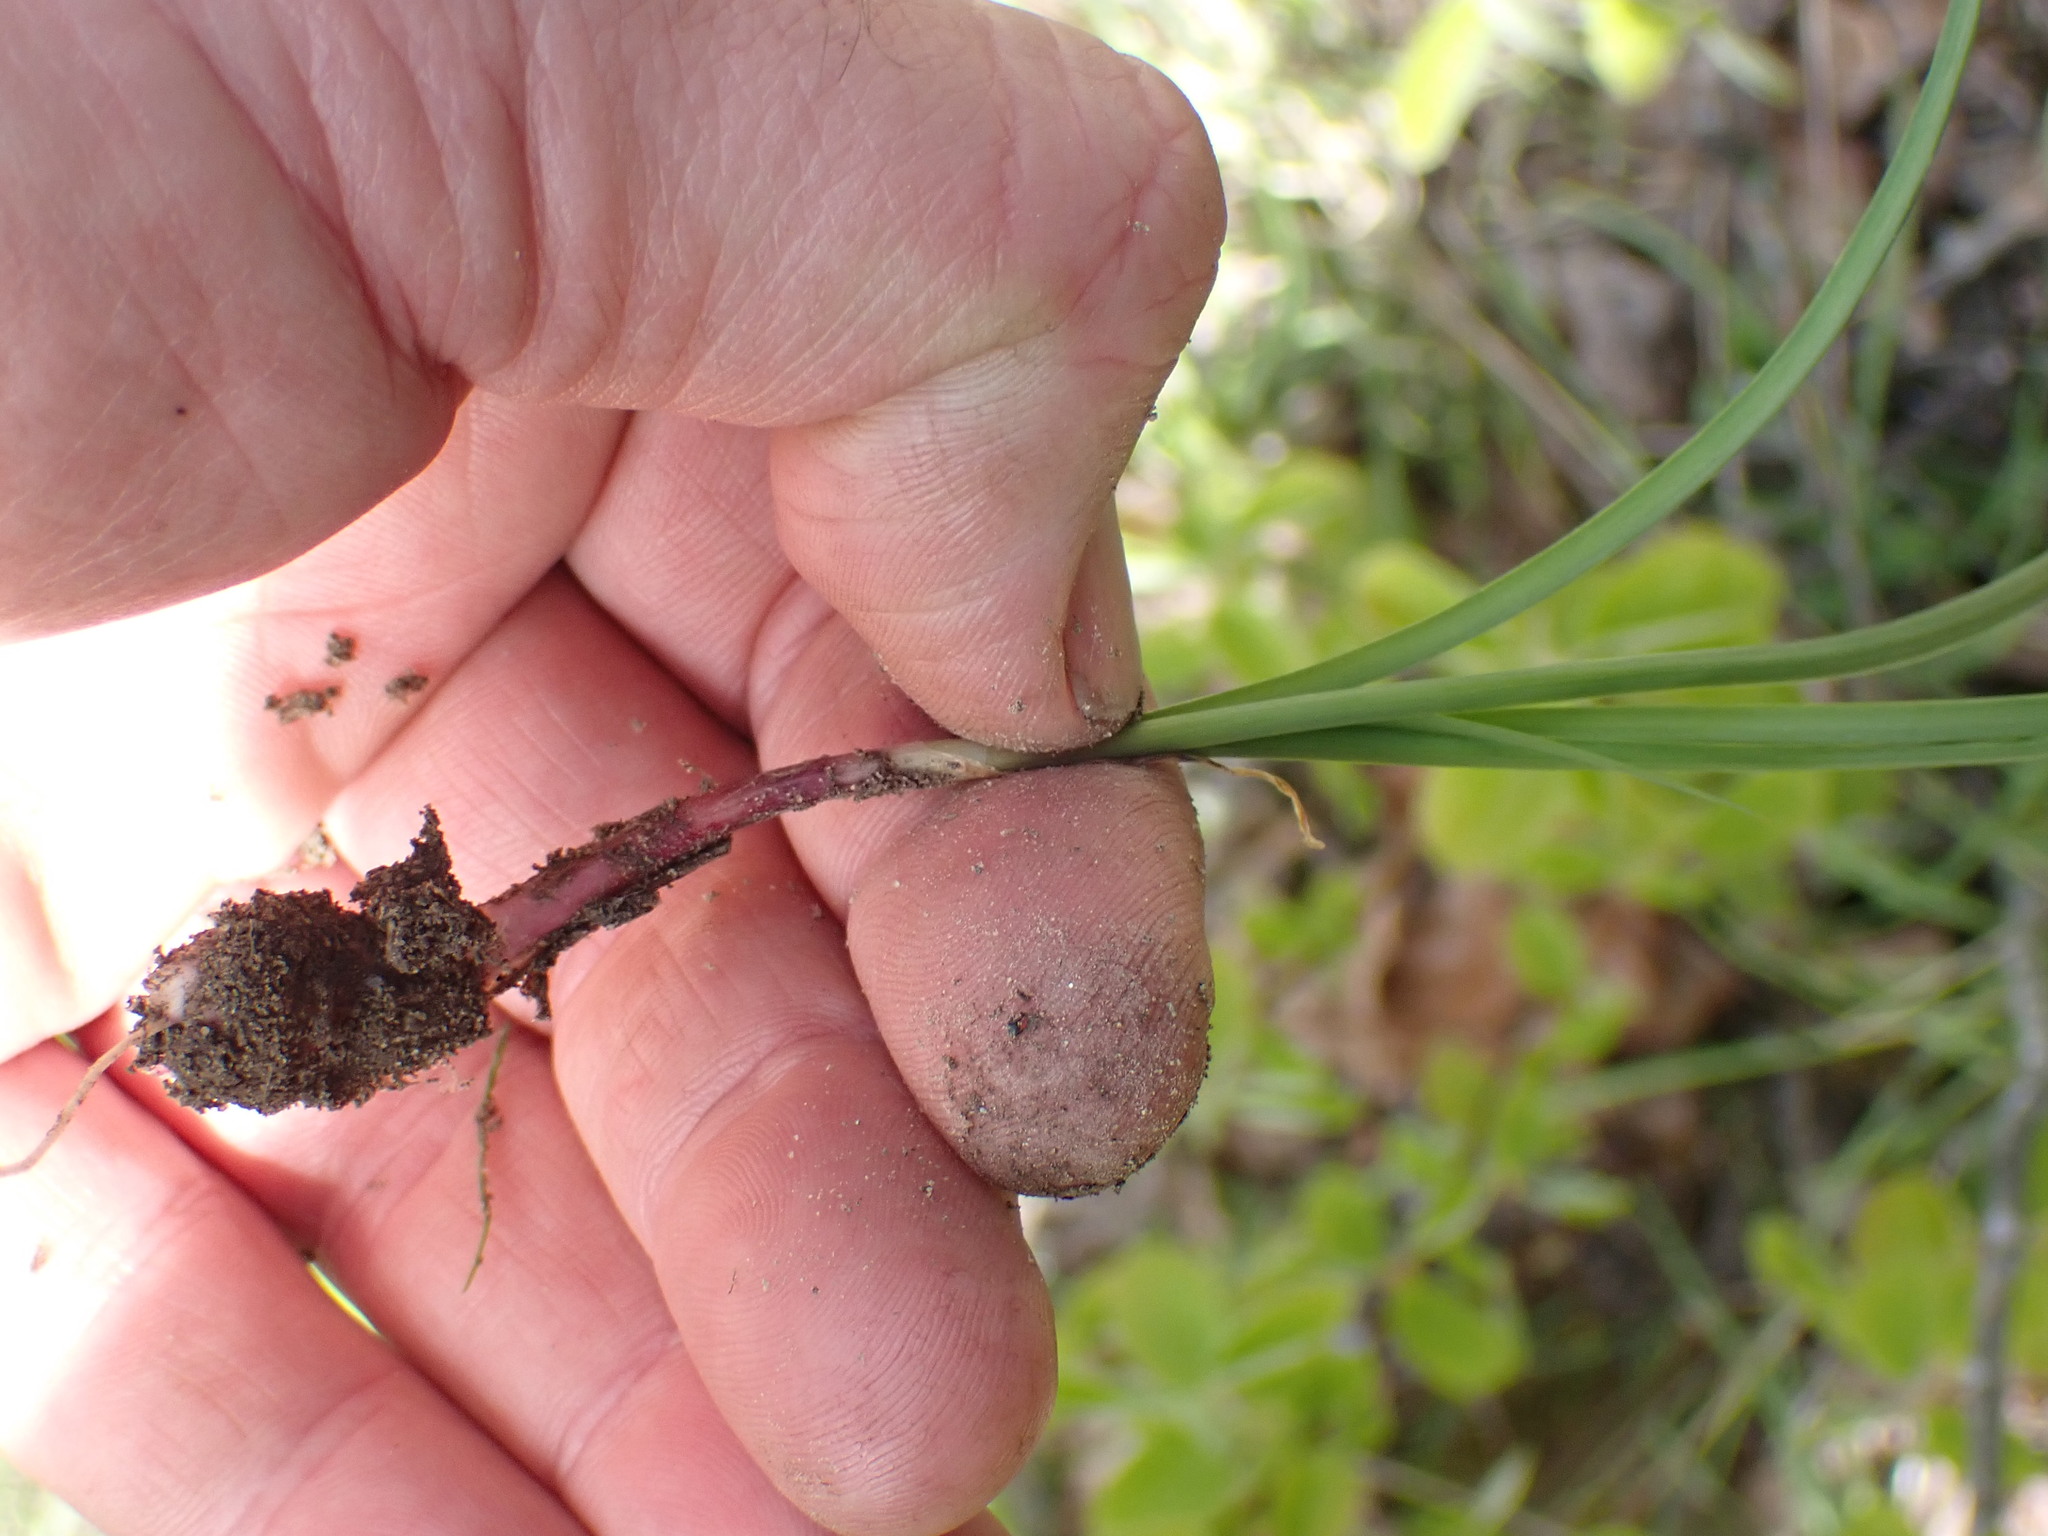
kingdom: Plantae
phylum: Tracheophyta
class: Liliopsida
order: Asparagales
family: Amaryllidaceae
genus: Allium
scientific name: Allium cernuum
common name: Nodding onion
